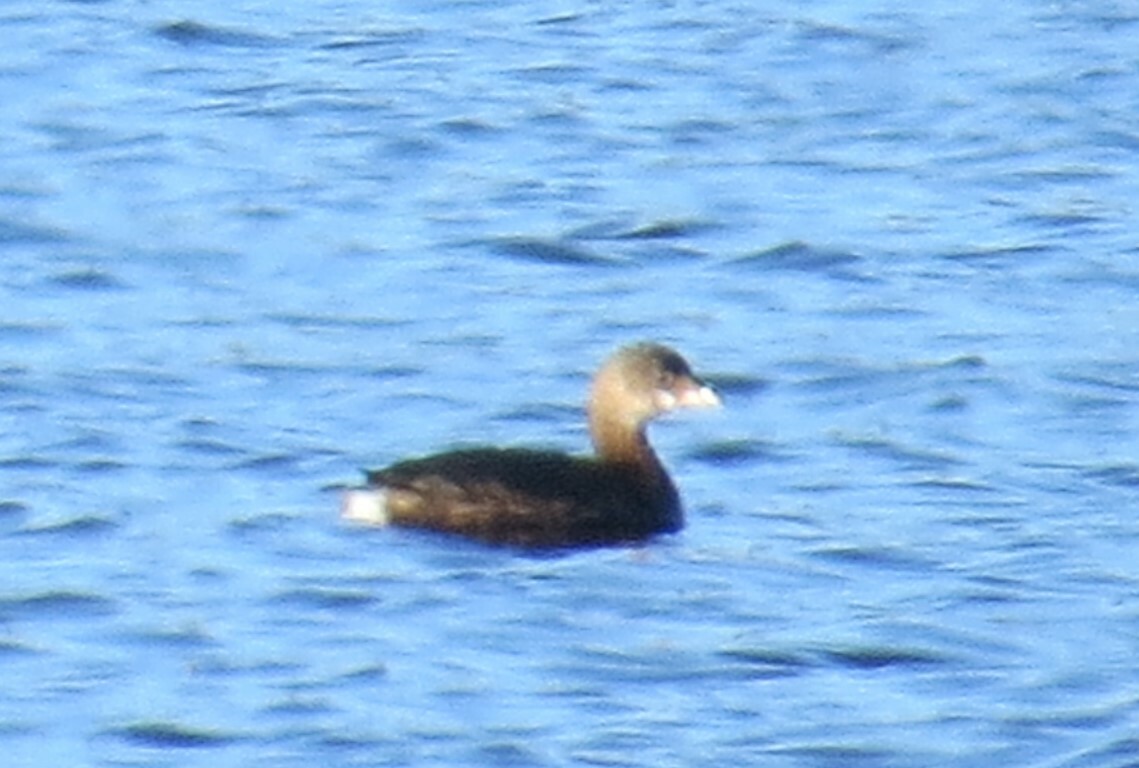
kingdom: Animalia
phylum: Chordata
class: Aves
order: Podicipediformes
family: Podicipedidae
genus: Podilymbus
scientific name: Podilymbus podiceps
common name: Pied-billed grebe
